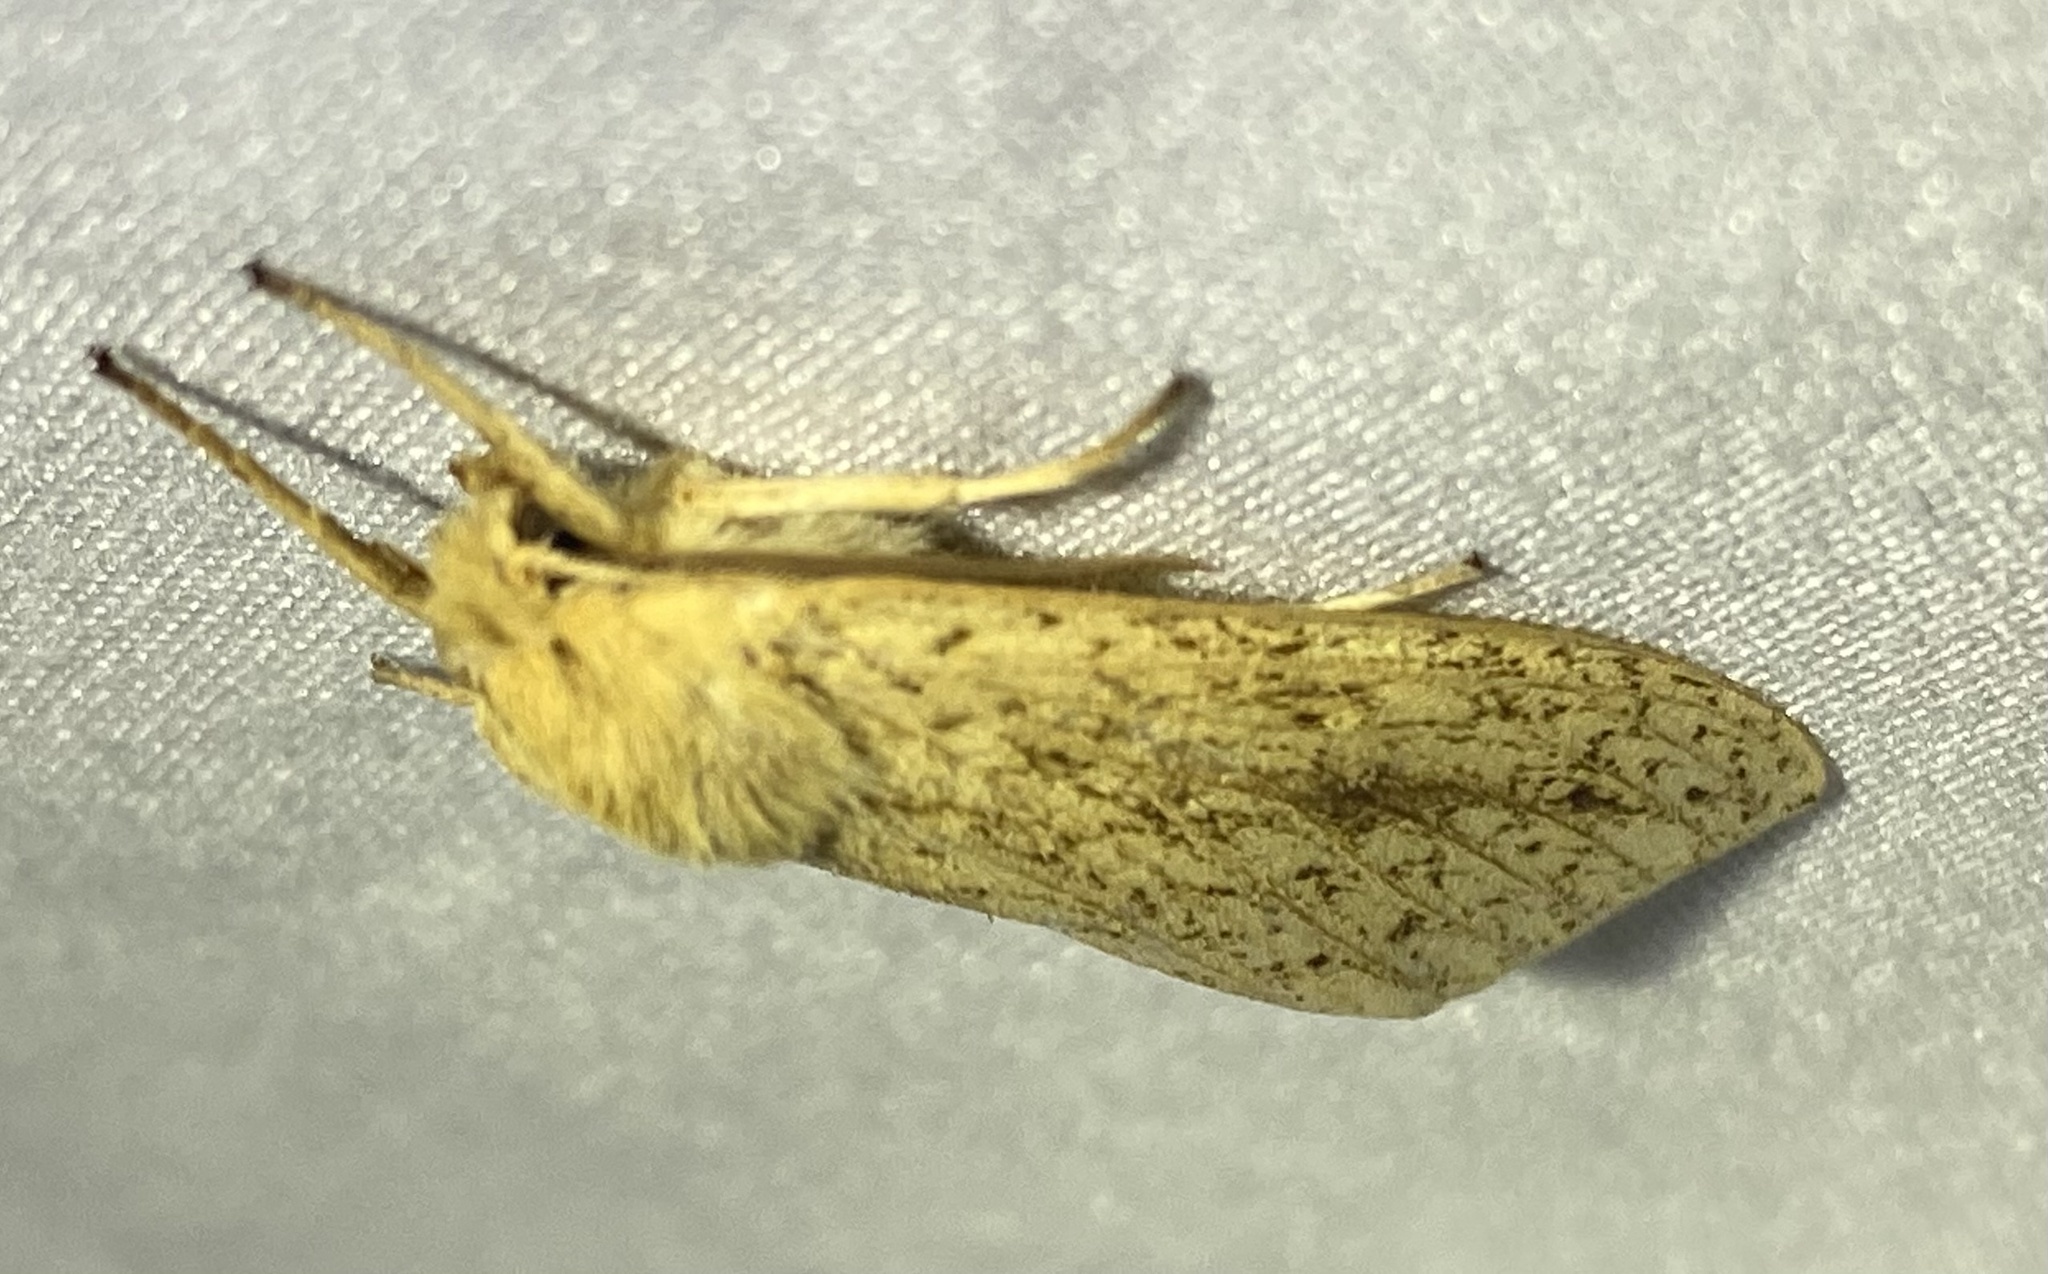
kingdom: Animalia
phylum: Arthropoda
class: Insecta
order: Lepidoptera
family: Erebidae
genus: Leucanopsis
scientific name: Leucanopsis longa
